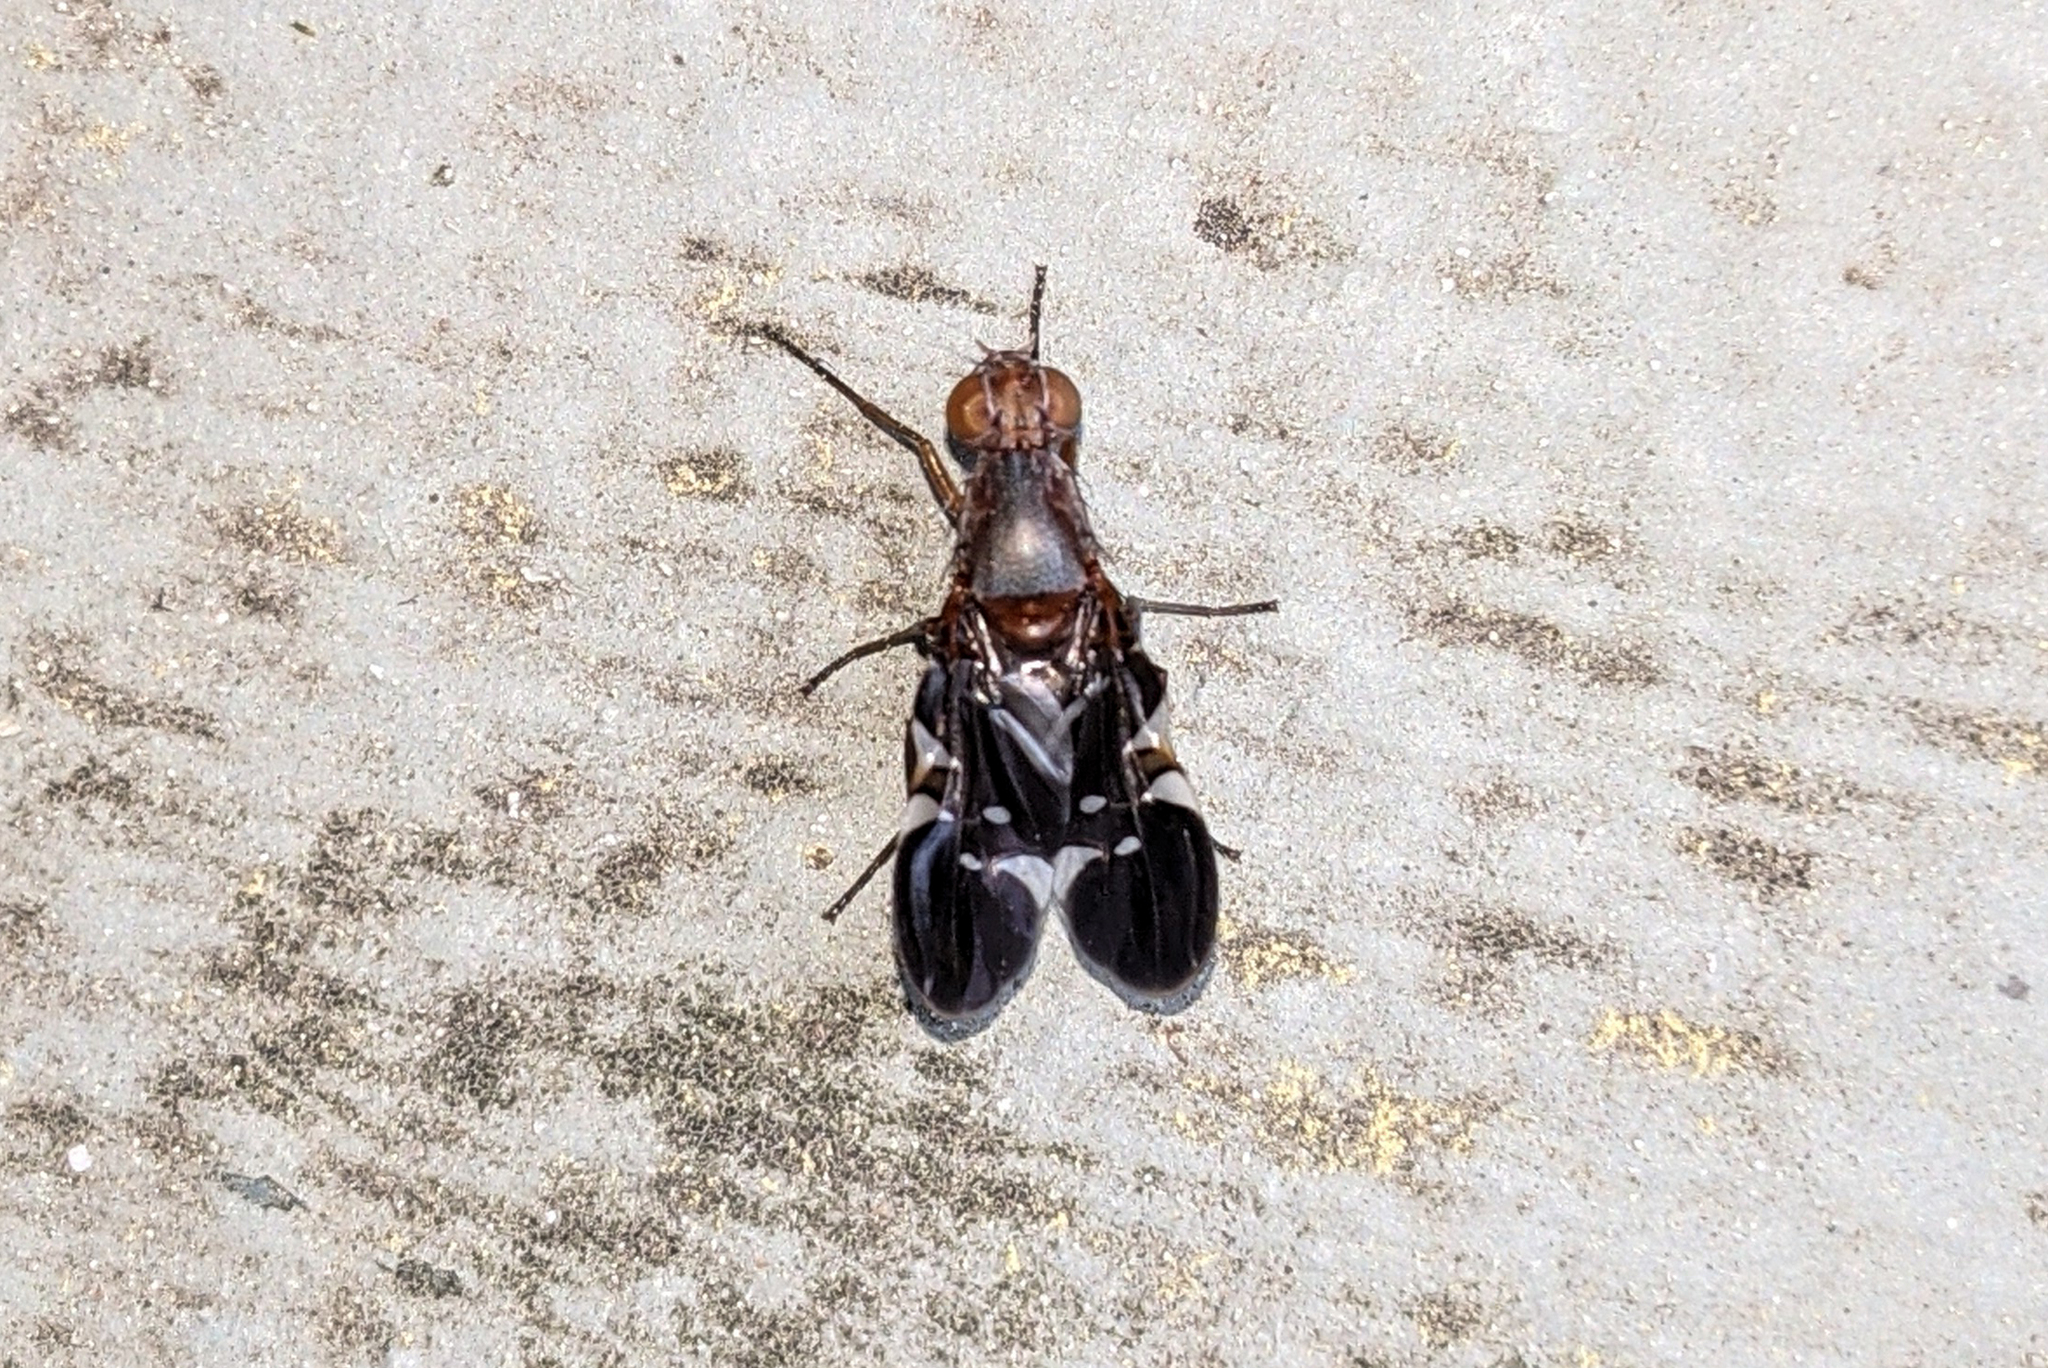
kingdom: Animalia
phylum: Arthropoda
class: Insecta
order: Diptera
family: Ulidiidae
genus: Delphinia
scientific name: Delphinia picta
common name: Common picture-winged fly
